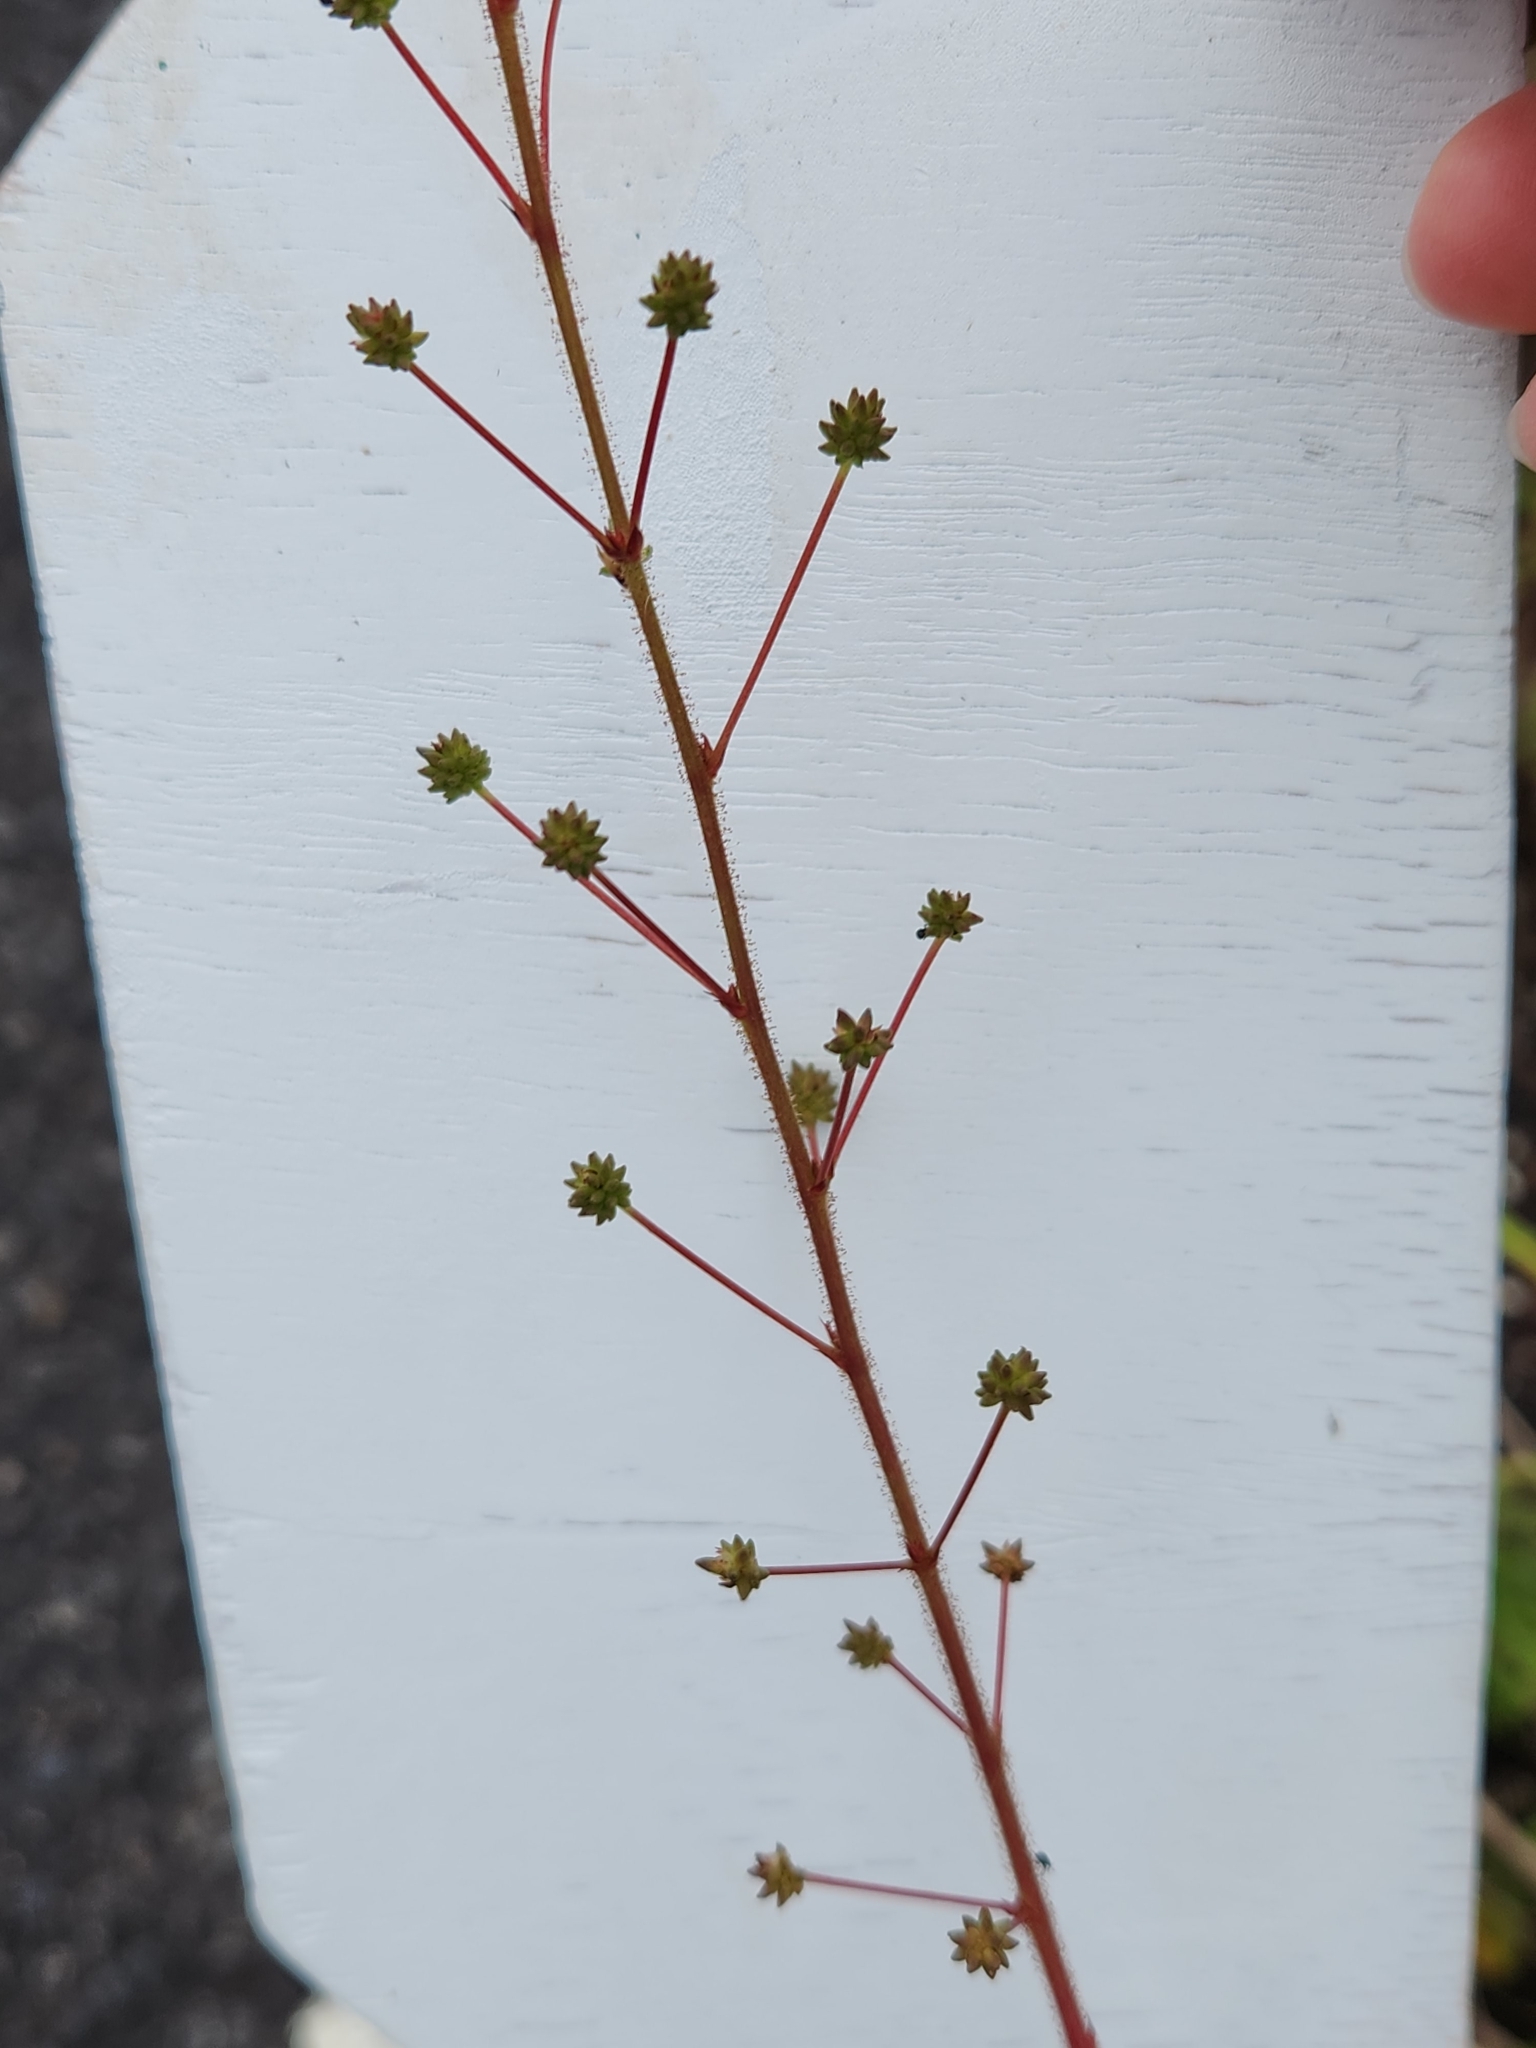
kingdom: Plantae
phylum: Tracheophyta
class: Magnoliopsida
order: Fabales
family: Fabaceae
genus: Mimosa
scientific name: Mimosa pigra
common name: Black mimosa
